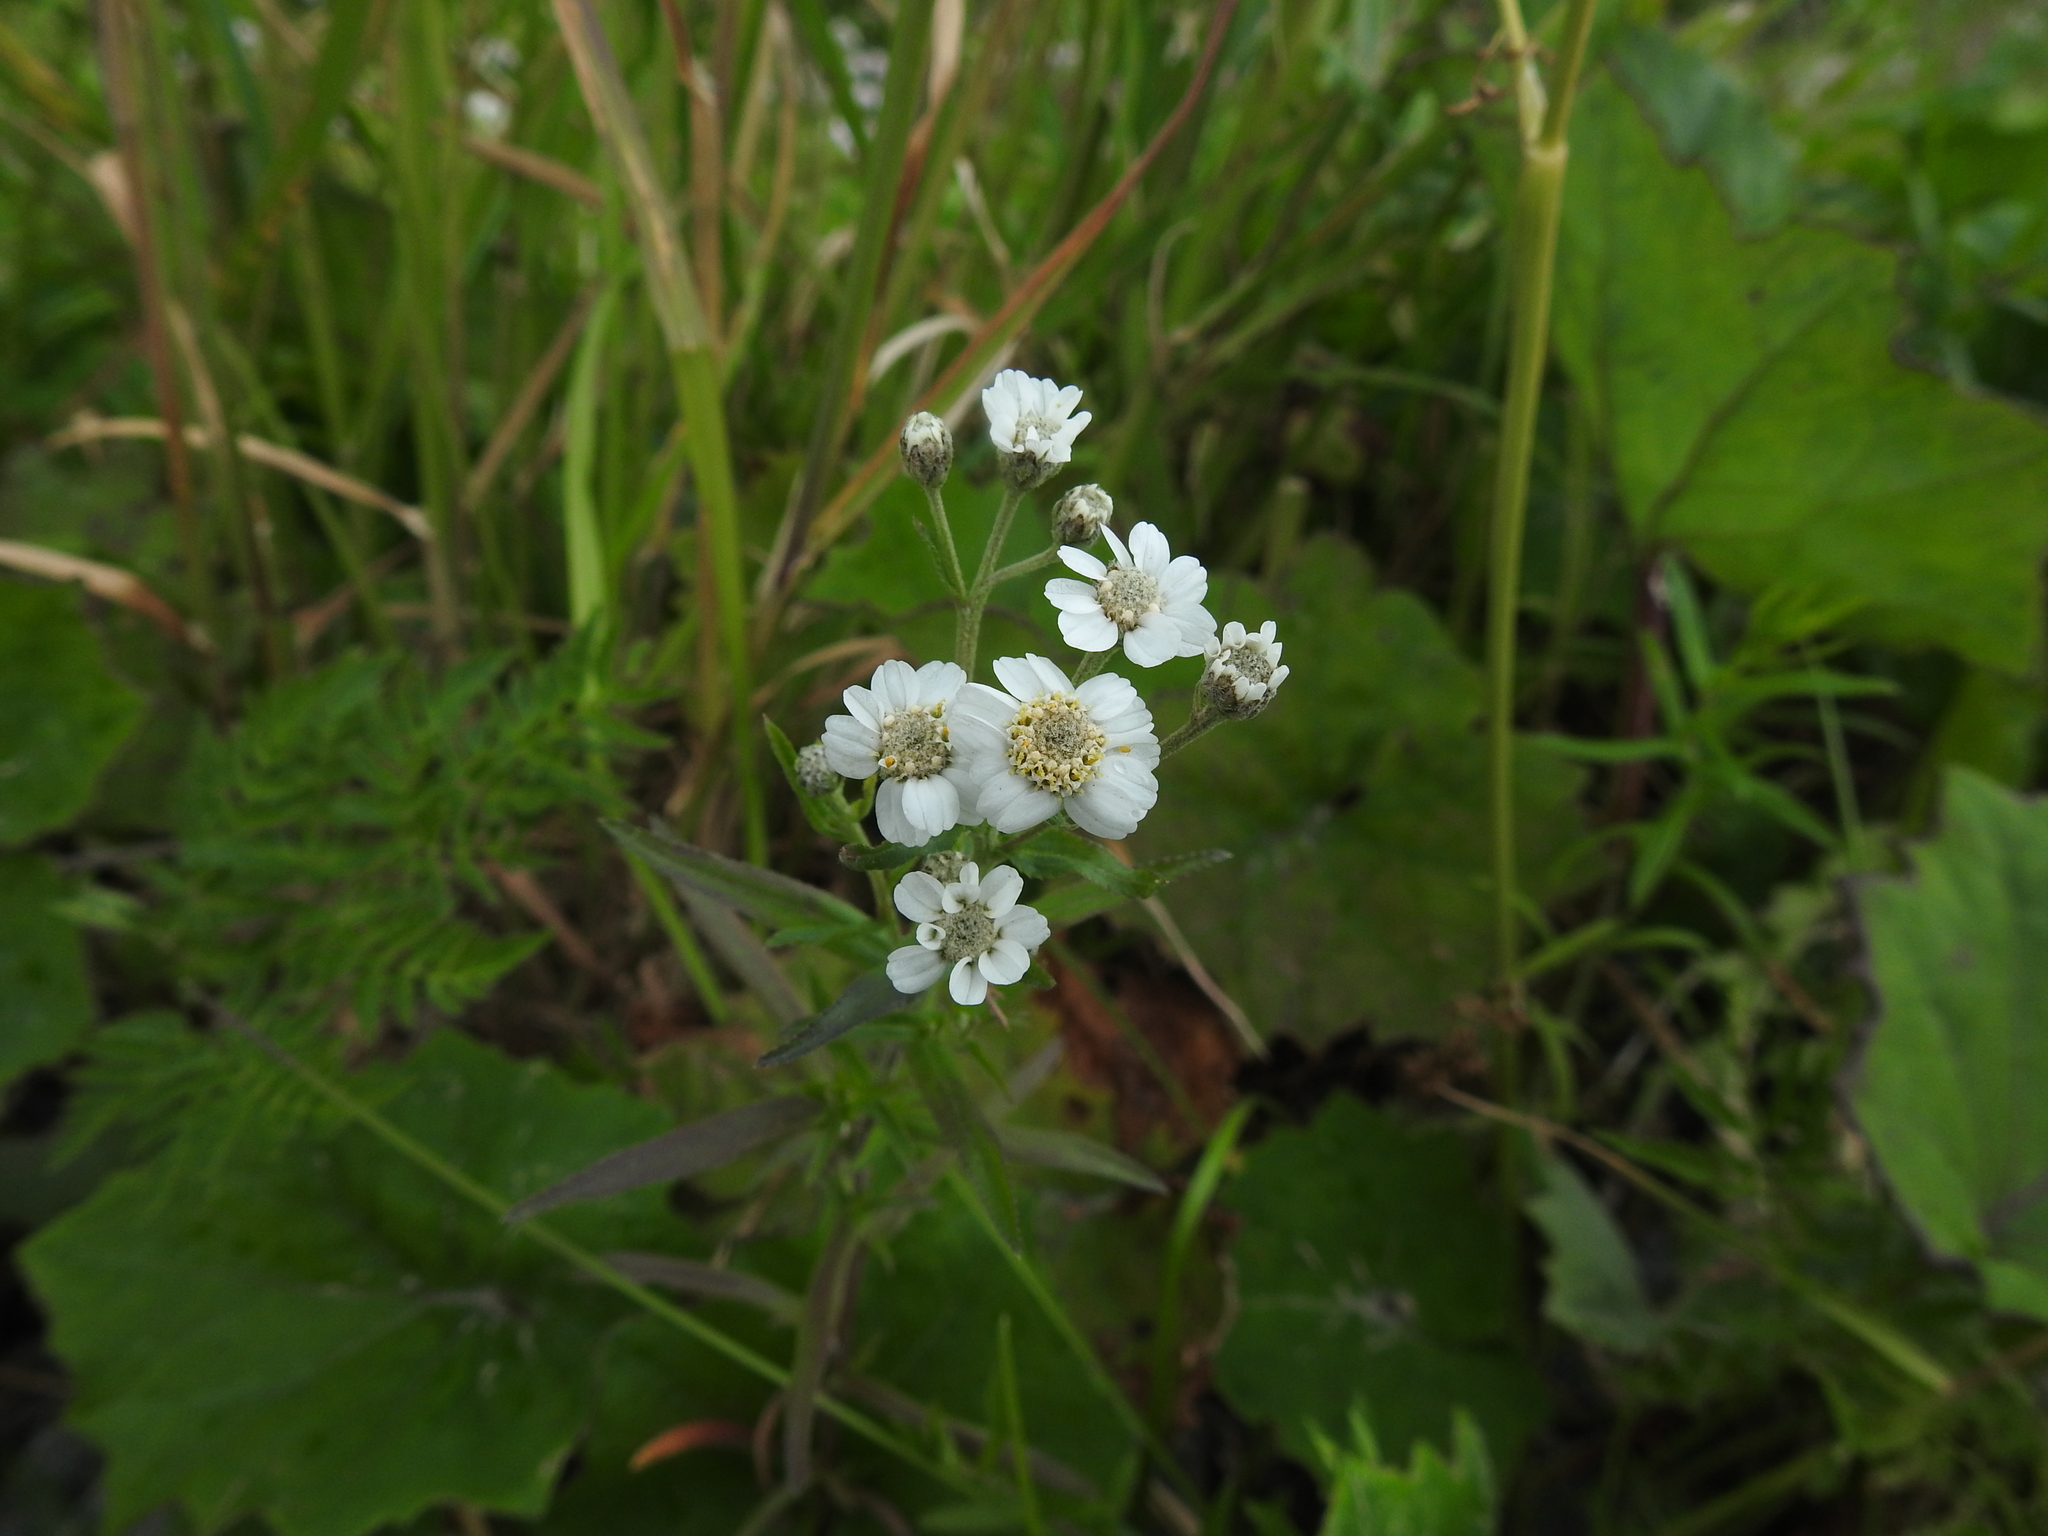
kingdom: Plantae
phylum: Tracheophyta
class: Magnoliopsida
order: Asterales
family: Asteraceae
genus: Achillea
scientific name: Achillea ptarmica
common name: Sneezeweed
